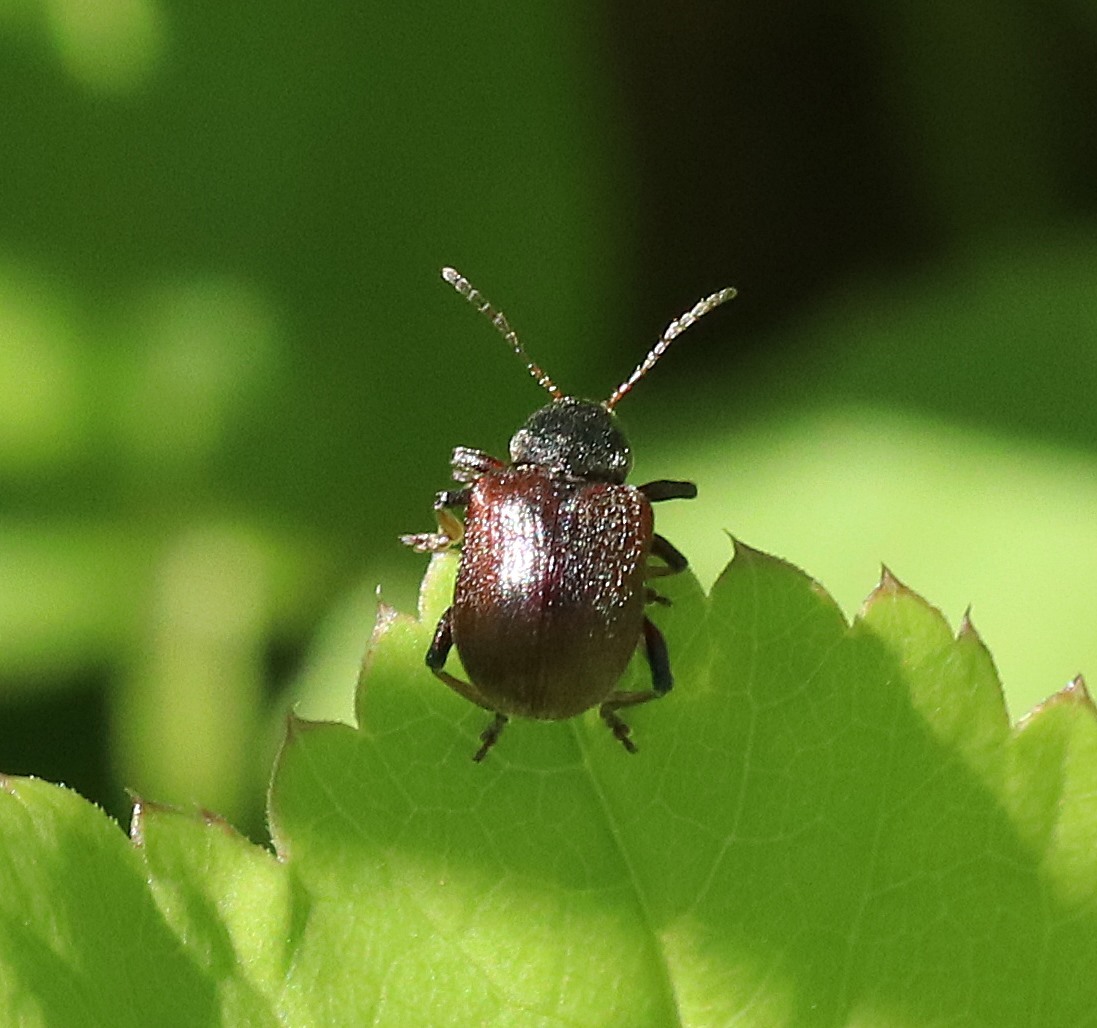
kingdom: Animalia
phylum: Arthropoda
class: Insecta
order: Coleoptera
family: Chrysomelidae
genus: Bromius
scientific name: Bromius obscurus
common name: Western grape rootworm
